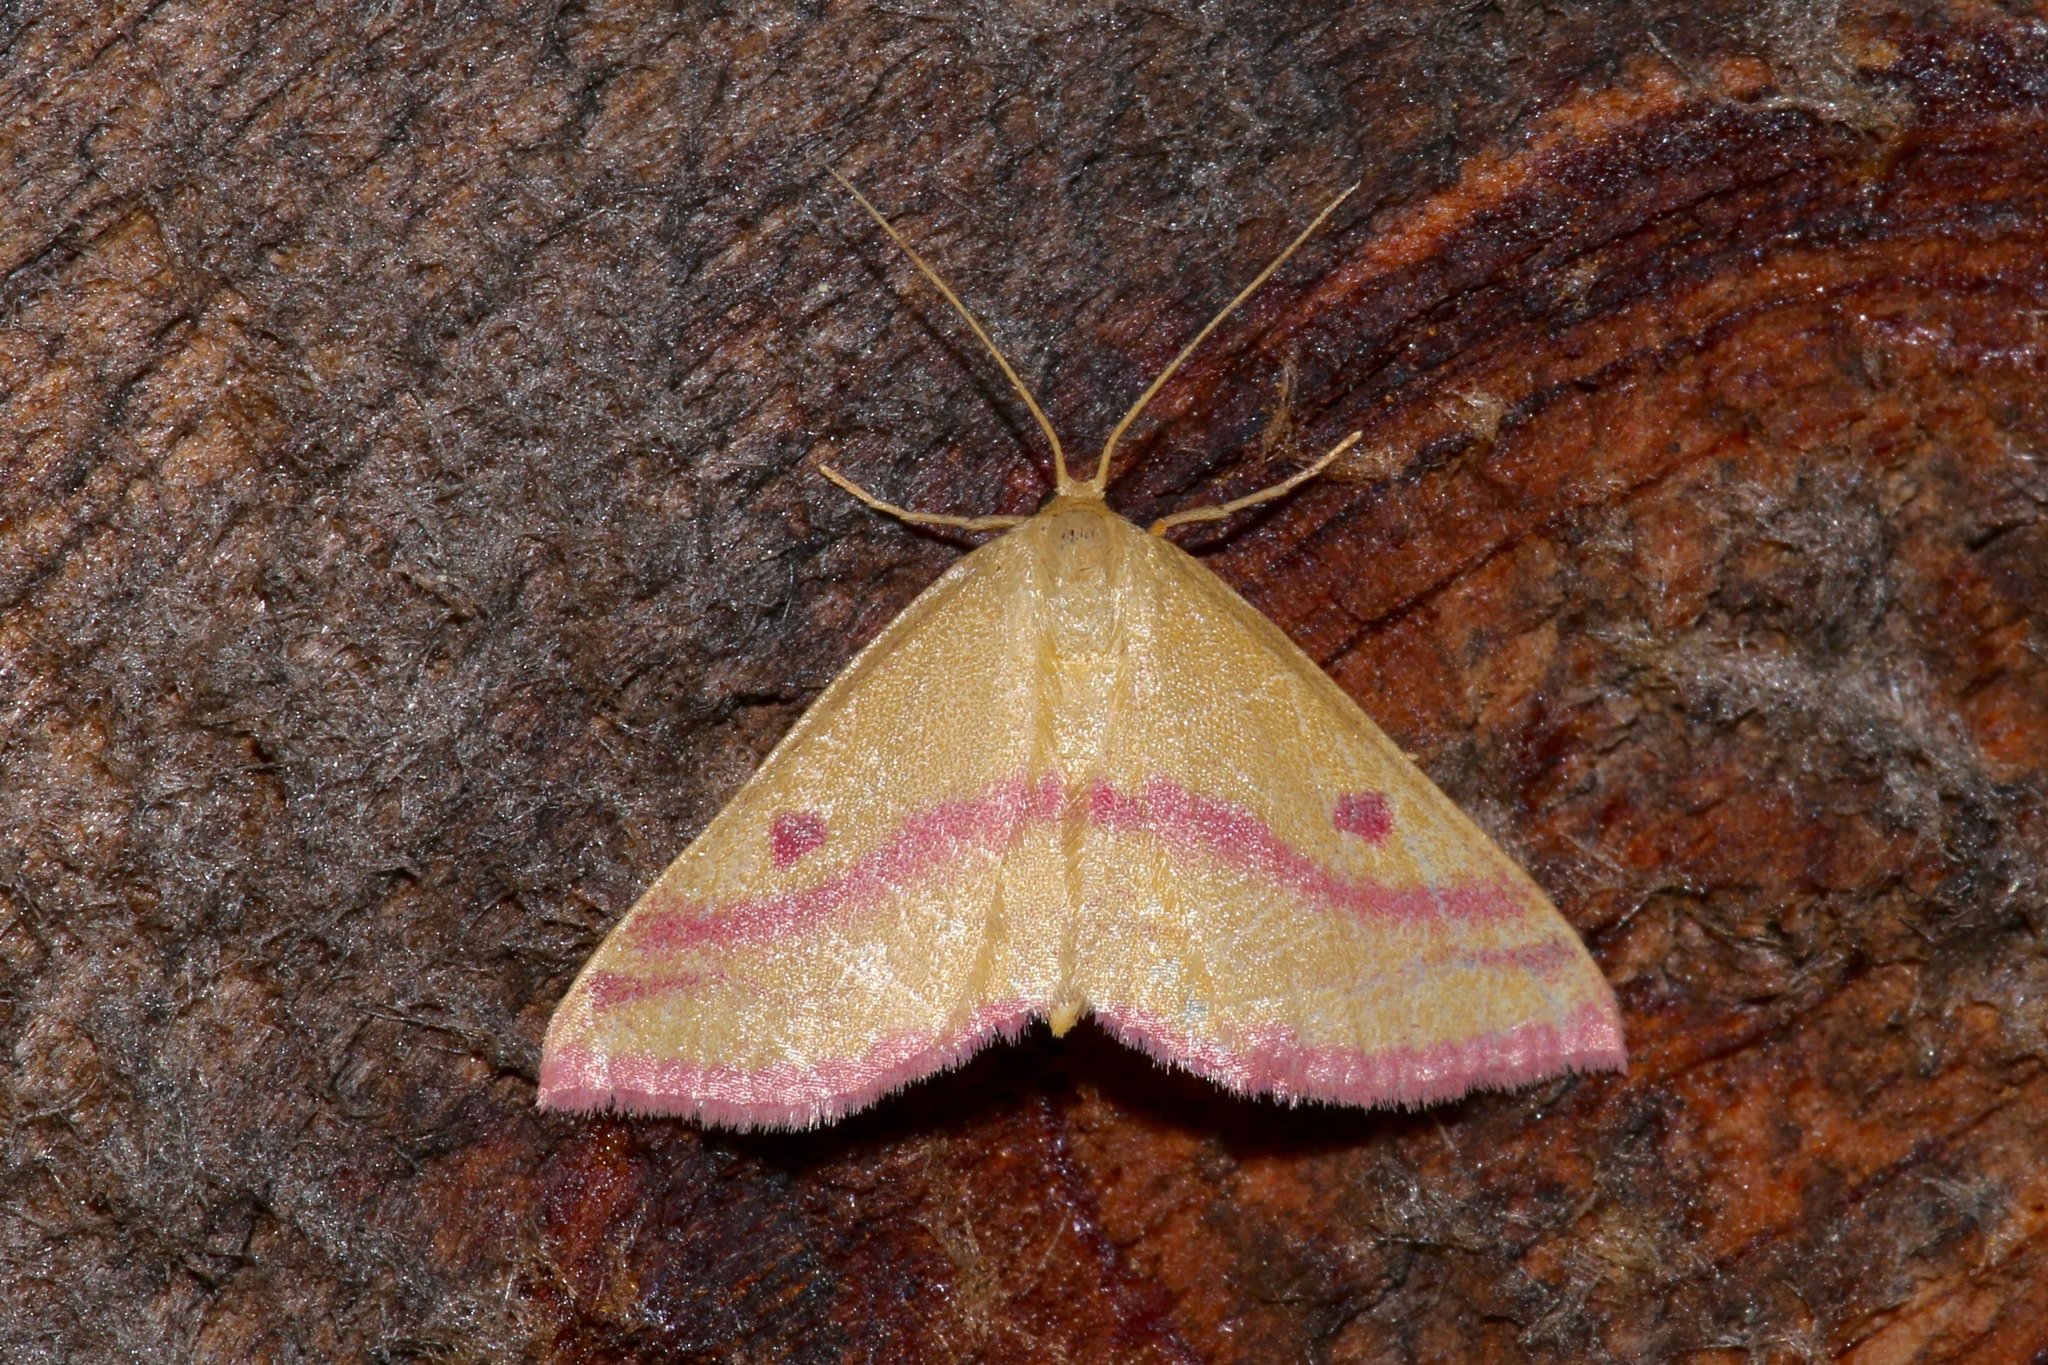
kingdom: Animalia
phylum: Arthropoda
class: Insecta
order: Lepidoptera
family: Geometridae
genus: Haematopis
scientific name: Haematopis grataria
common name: Chickweed geometer
